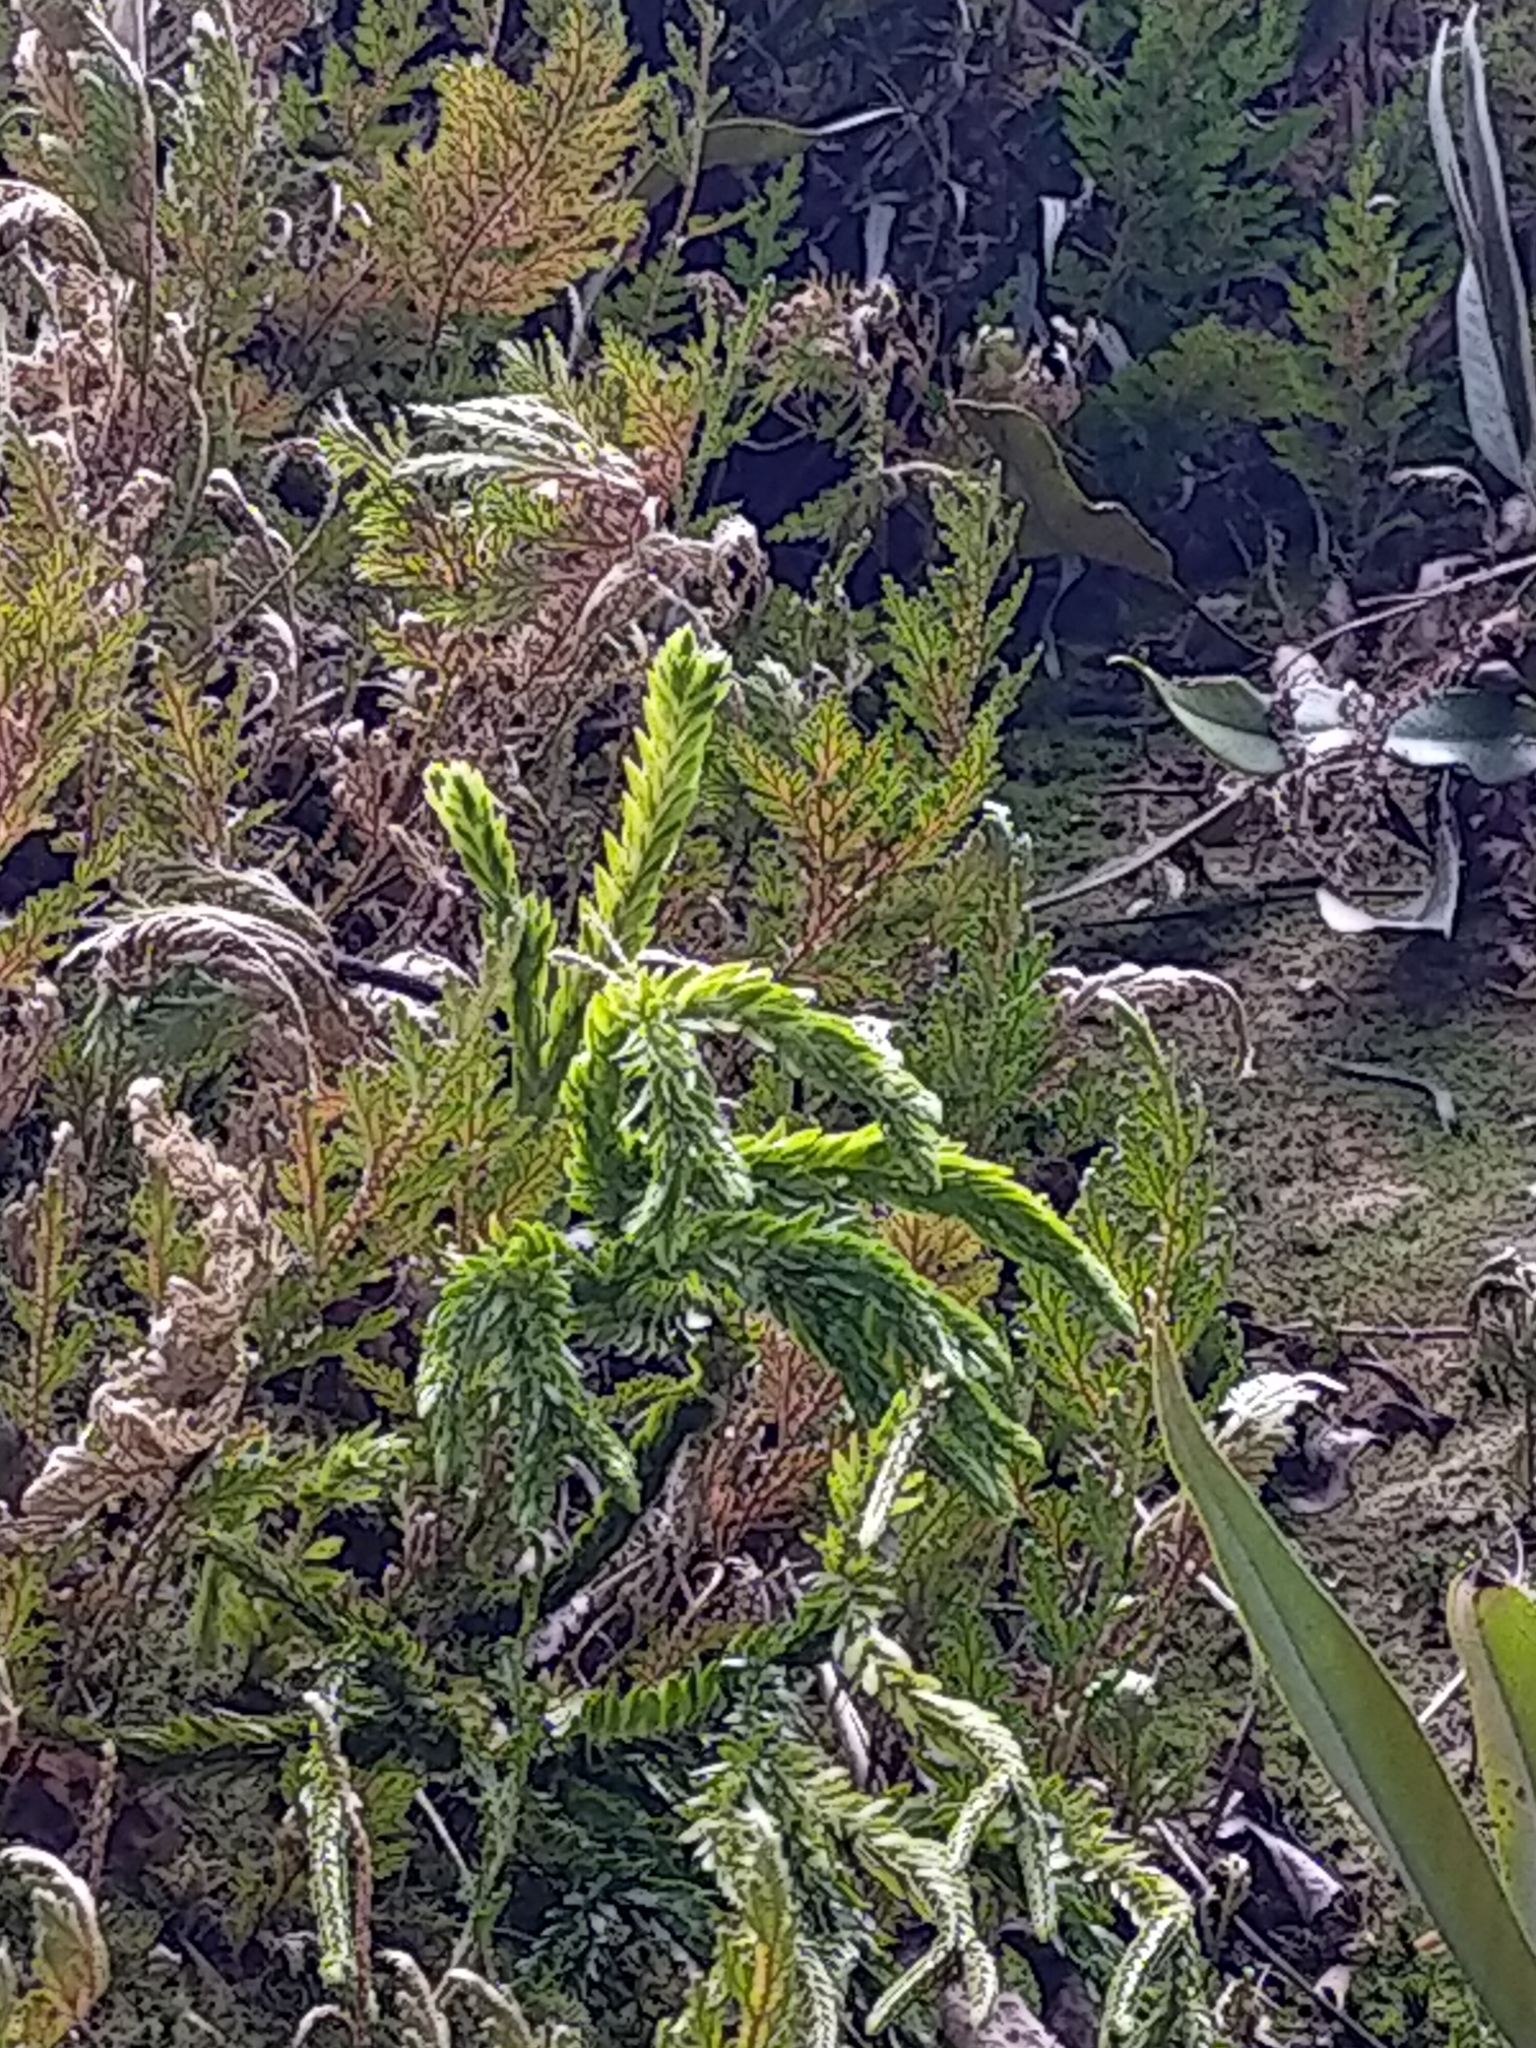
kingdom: Plantae
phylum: Tracheophyta
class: Polypodiopsida
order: Polypodiales
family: Polypodiaceae
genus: Pyrrosia
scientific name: Pyrrosia lingua
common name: Felt fern
